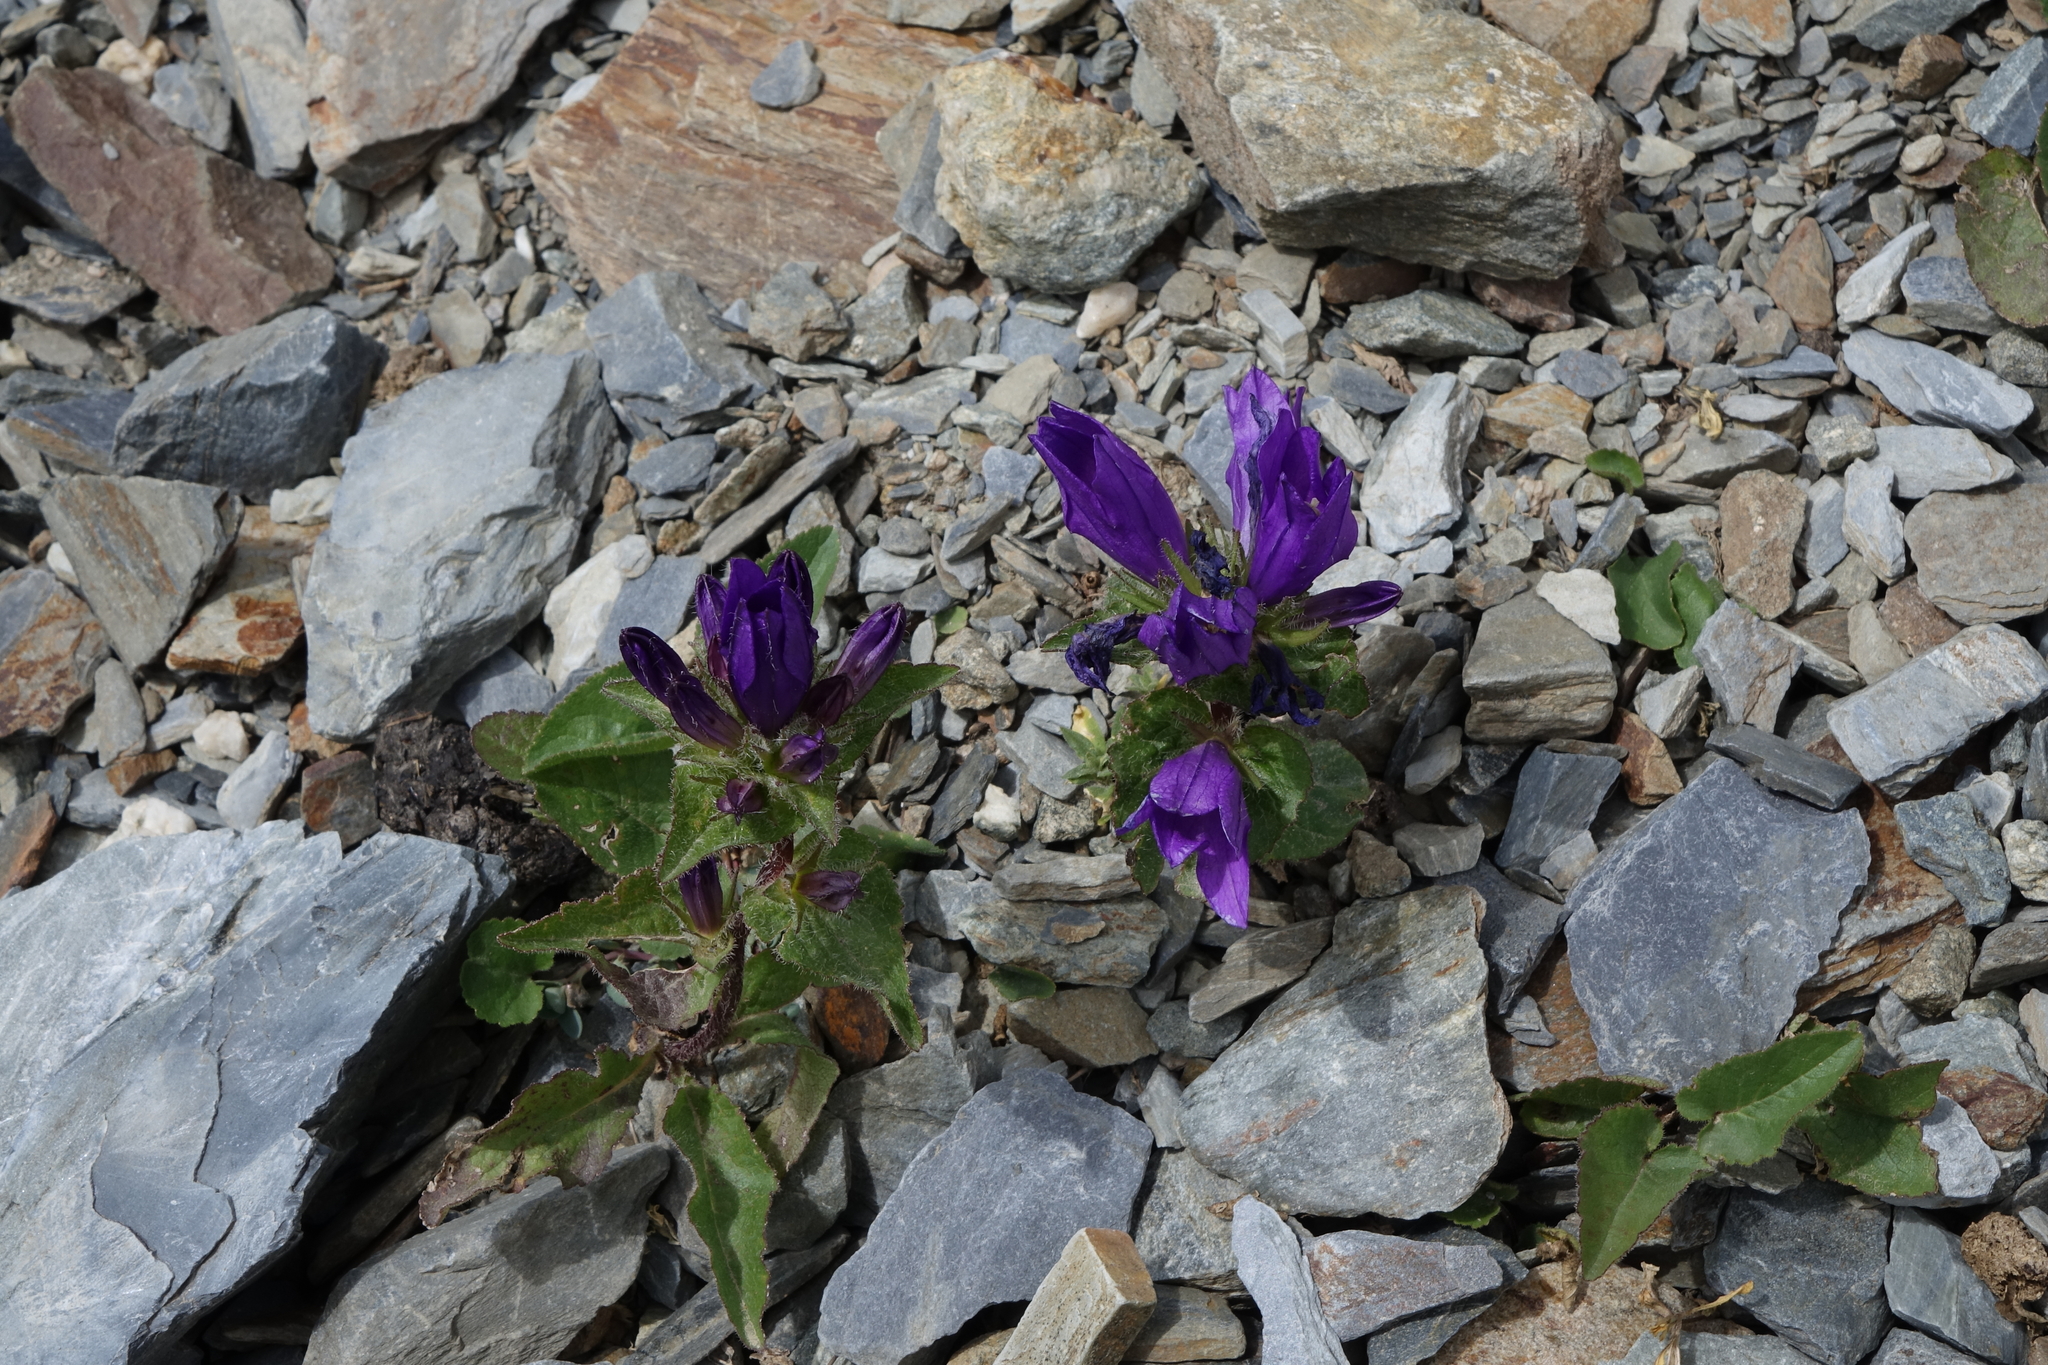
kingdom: Plantae
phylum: Tracheophyta
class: Magnoliopsida
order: Asterales
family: Campanulaceae
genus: Campanula
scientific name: Campanula glomerata
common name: Clustered bellflower
